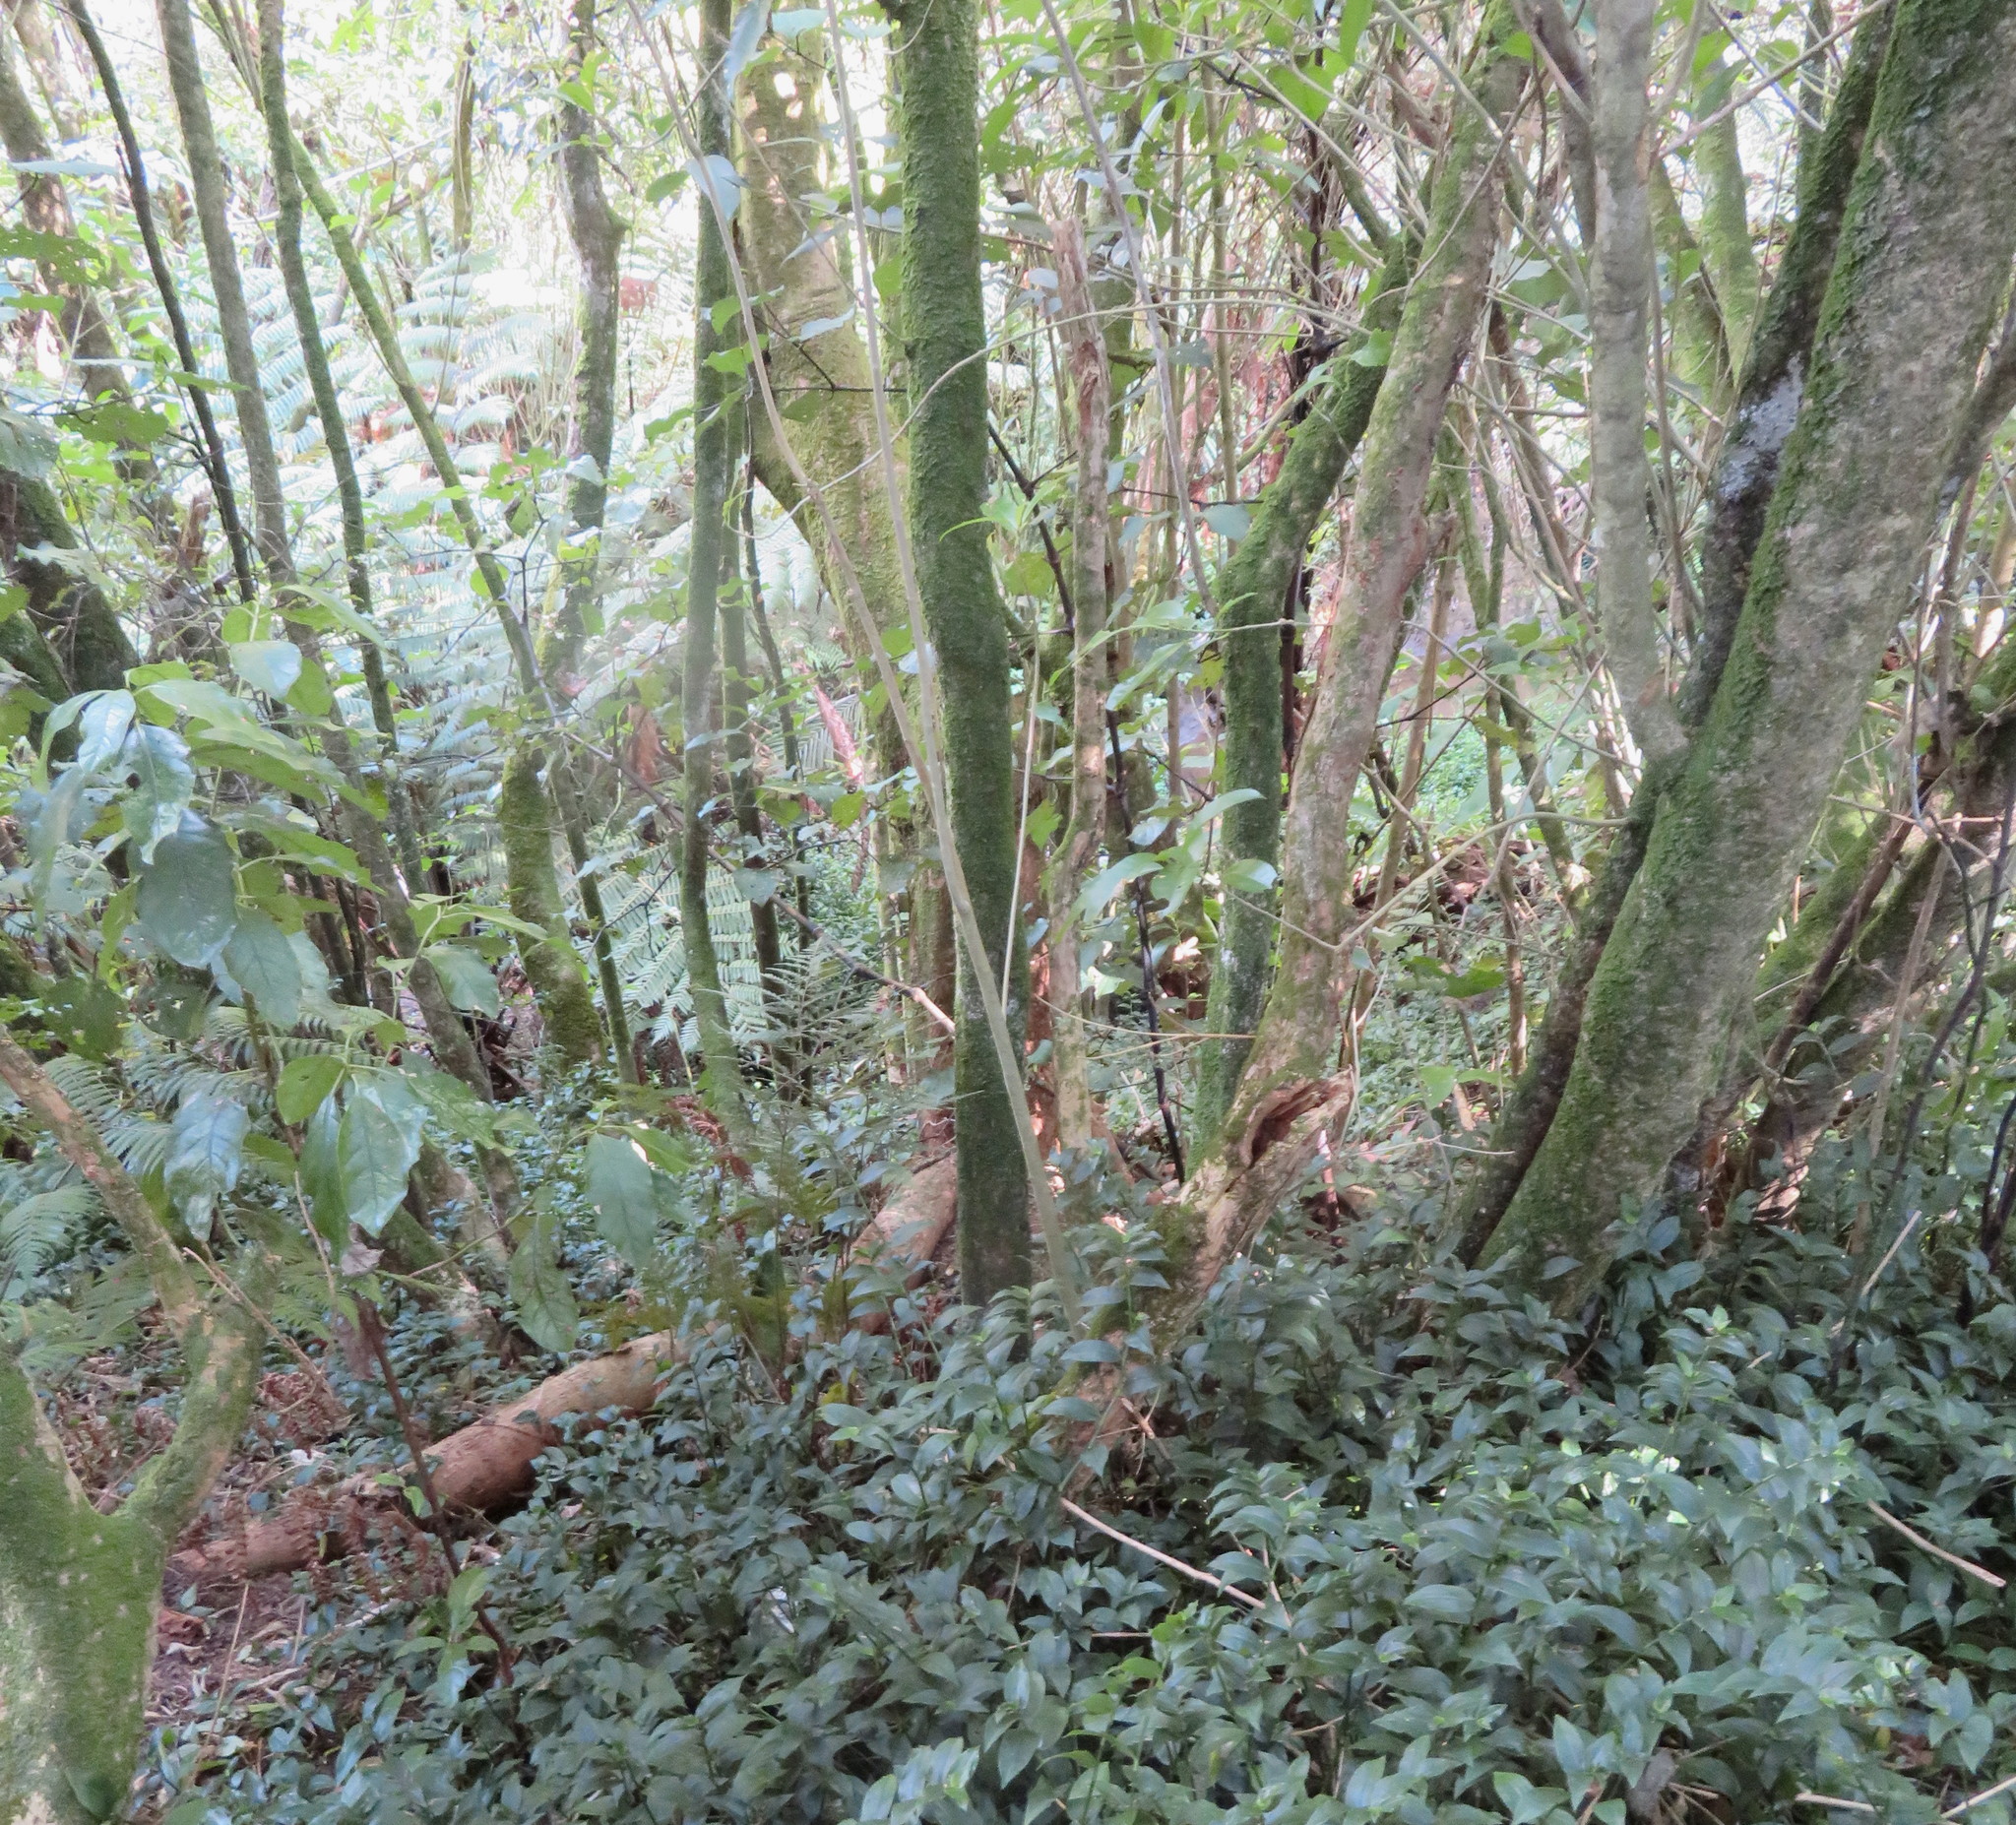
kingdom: Plantae
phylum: Tracheophyta
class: Liliopsida
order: Commelinales
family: Commelinaceae
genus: Tradescantia
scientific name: Tradescantia fluminensis
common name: Wandering-jew
